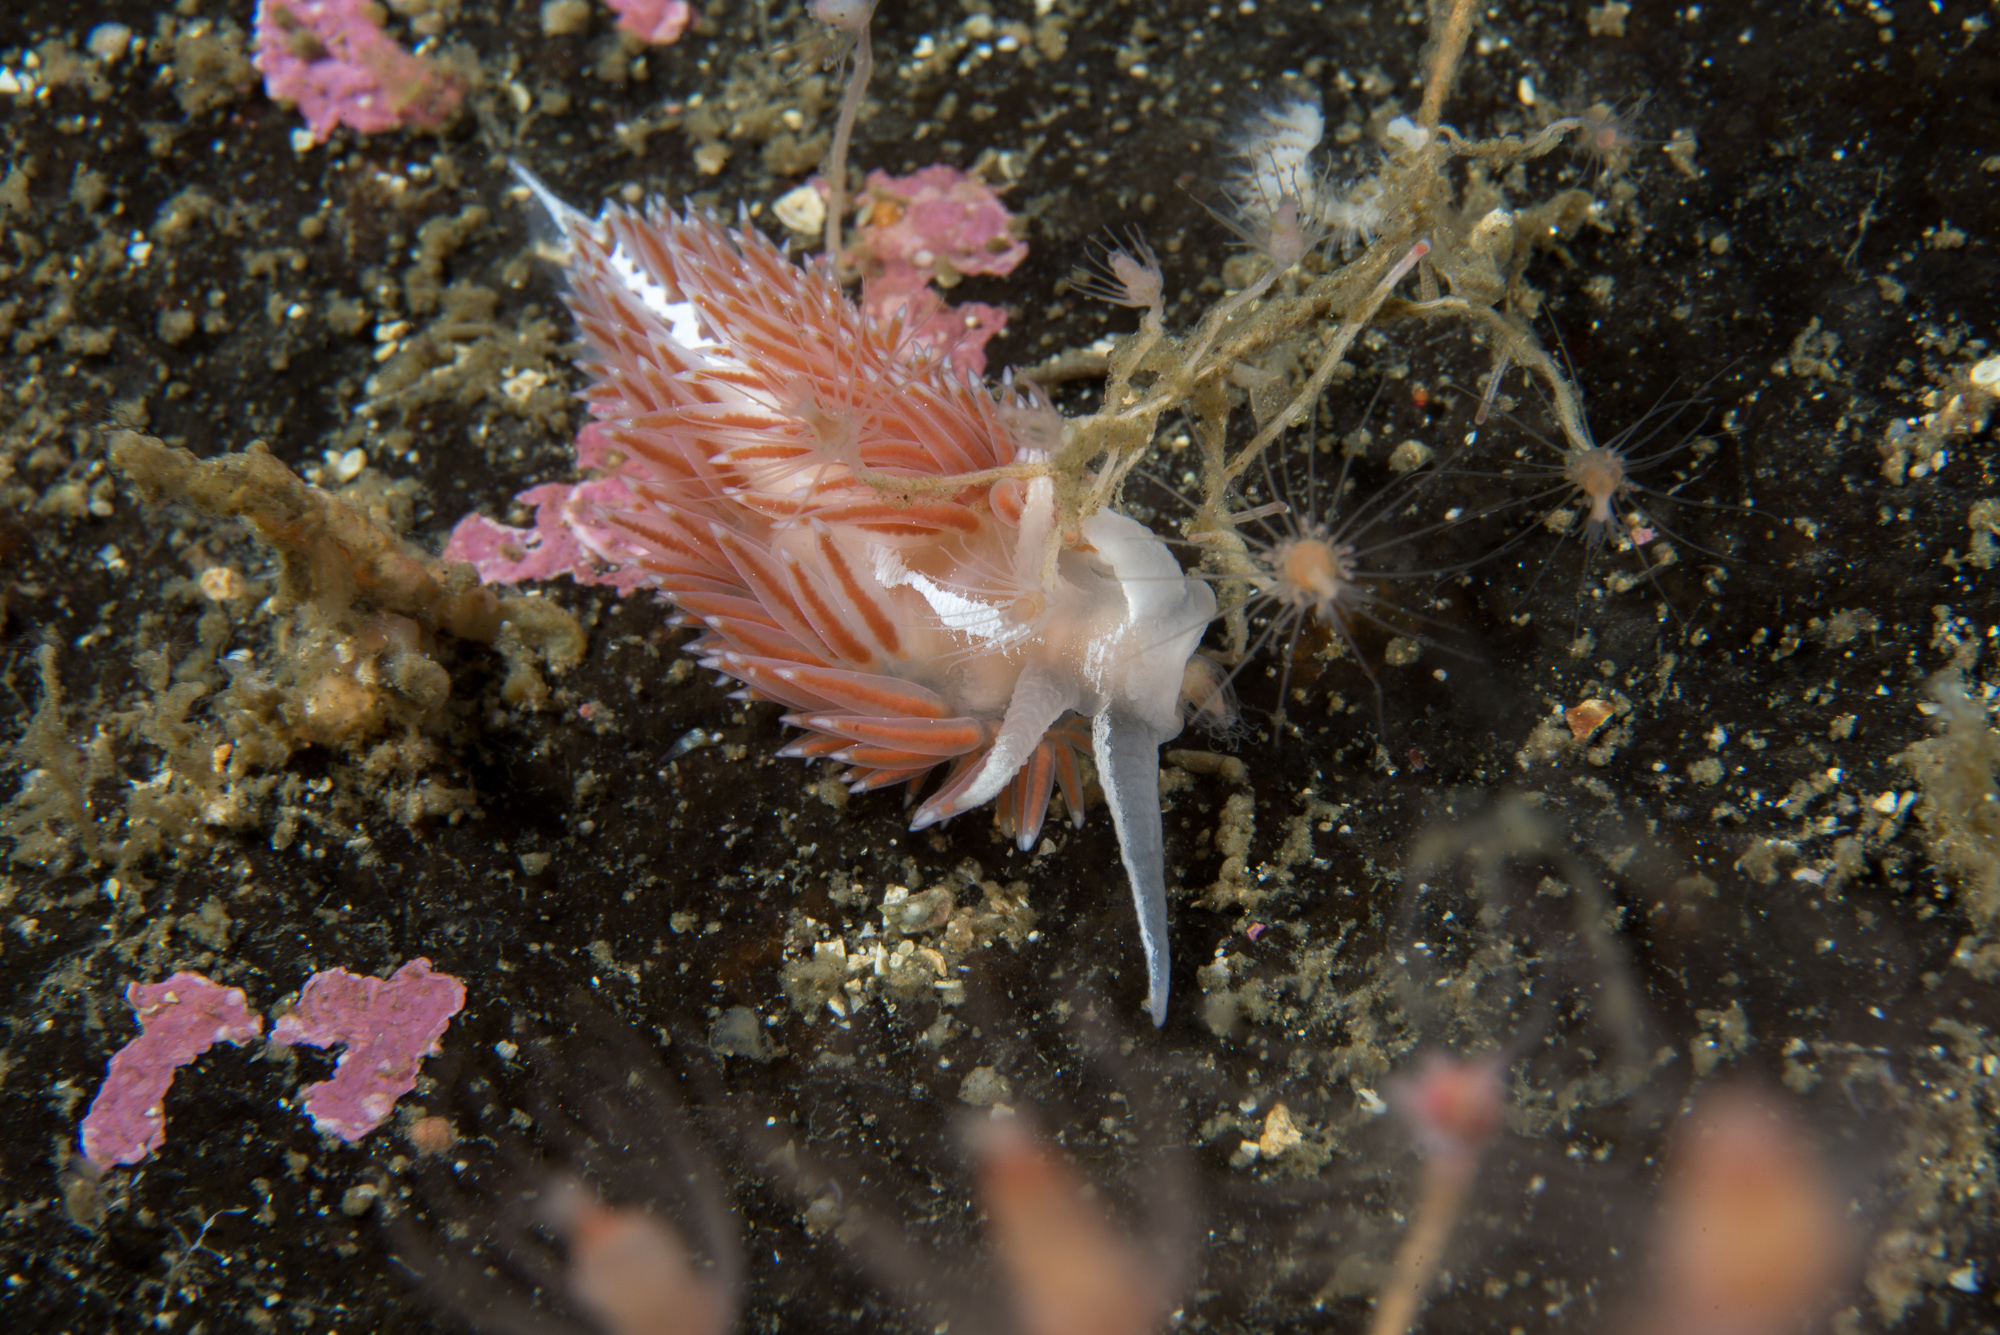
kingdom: Animalia
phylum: Mollusca
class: Gastropoda
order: Nudibranchia
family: Coryphellidae
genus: Coryphella
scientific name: Coryphella monicae
